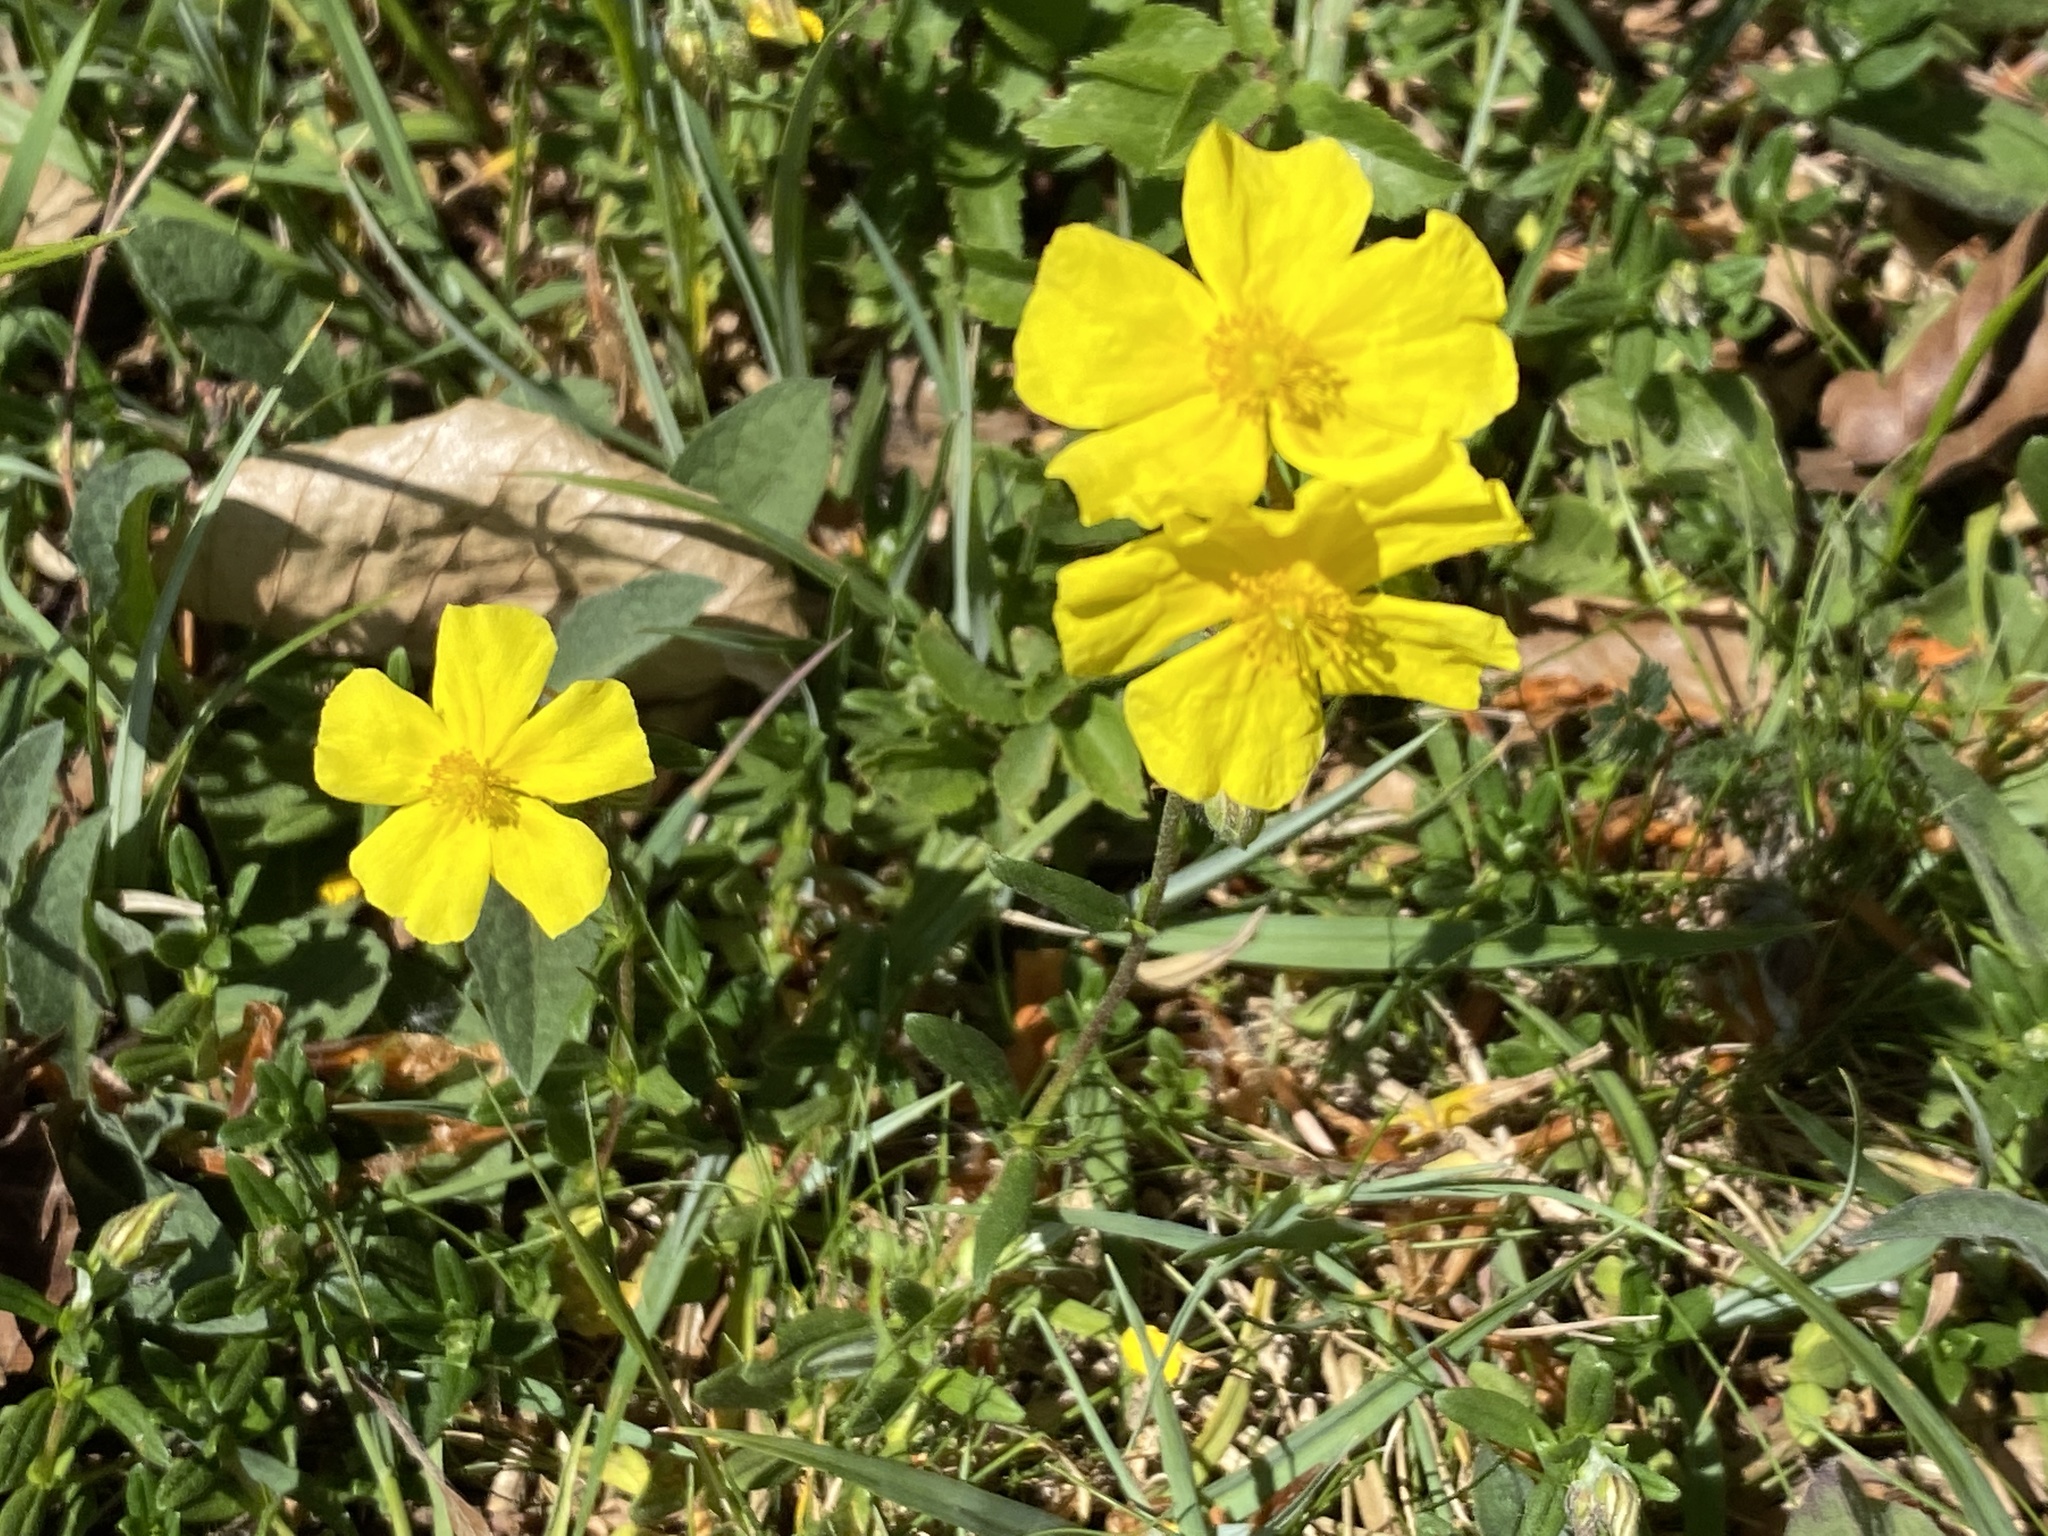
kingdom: Plantae
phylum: Tracheophyta
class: Magnoliopsida
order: Malvales
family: Cistaceae
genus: Helianthemum
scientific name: Helianthemum nummularium
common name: Common rock-rose
